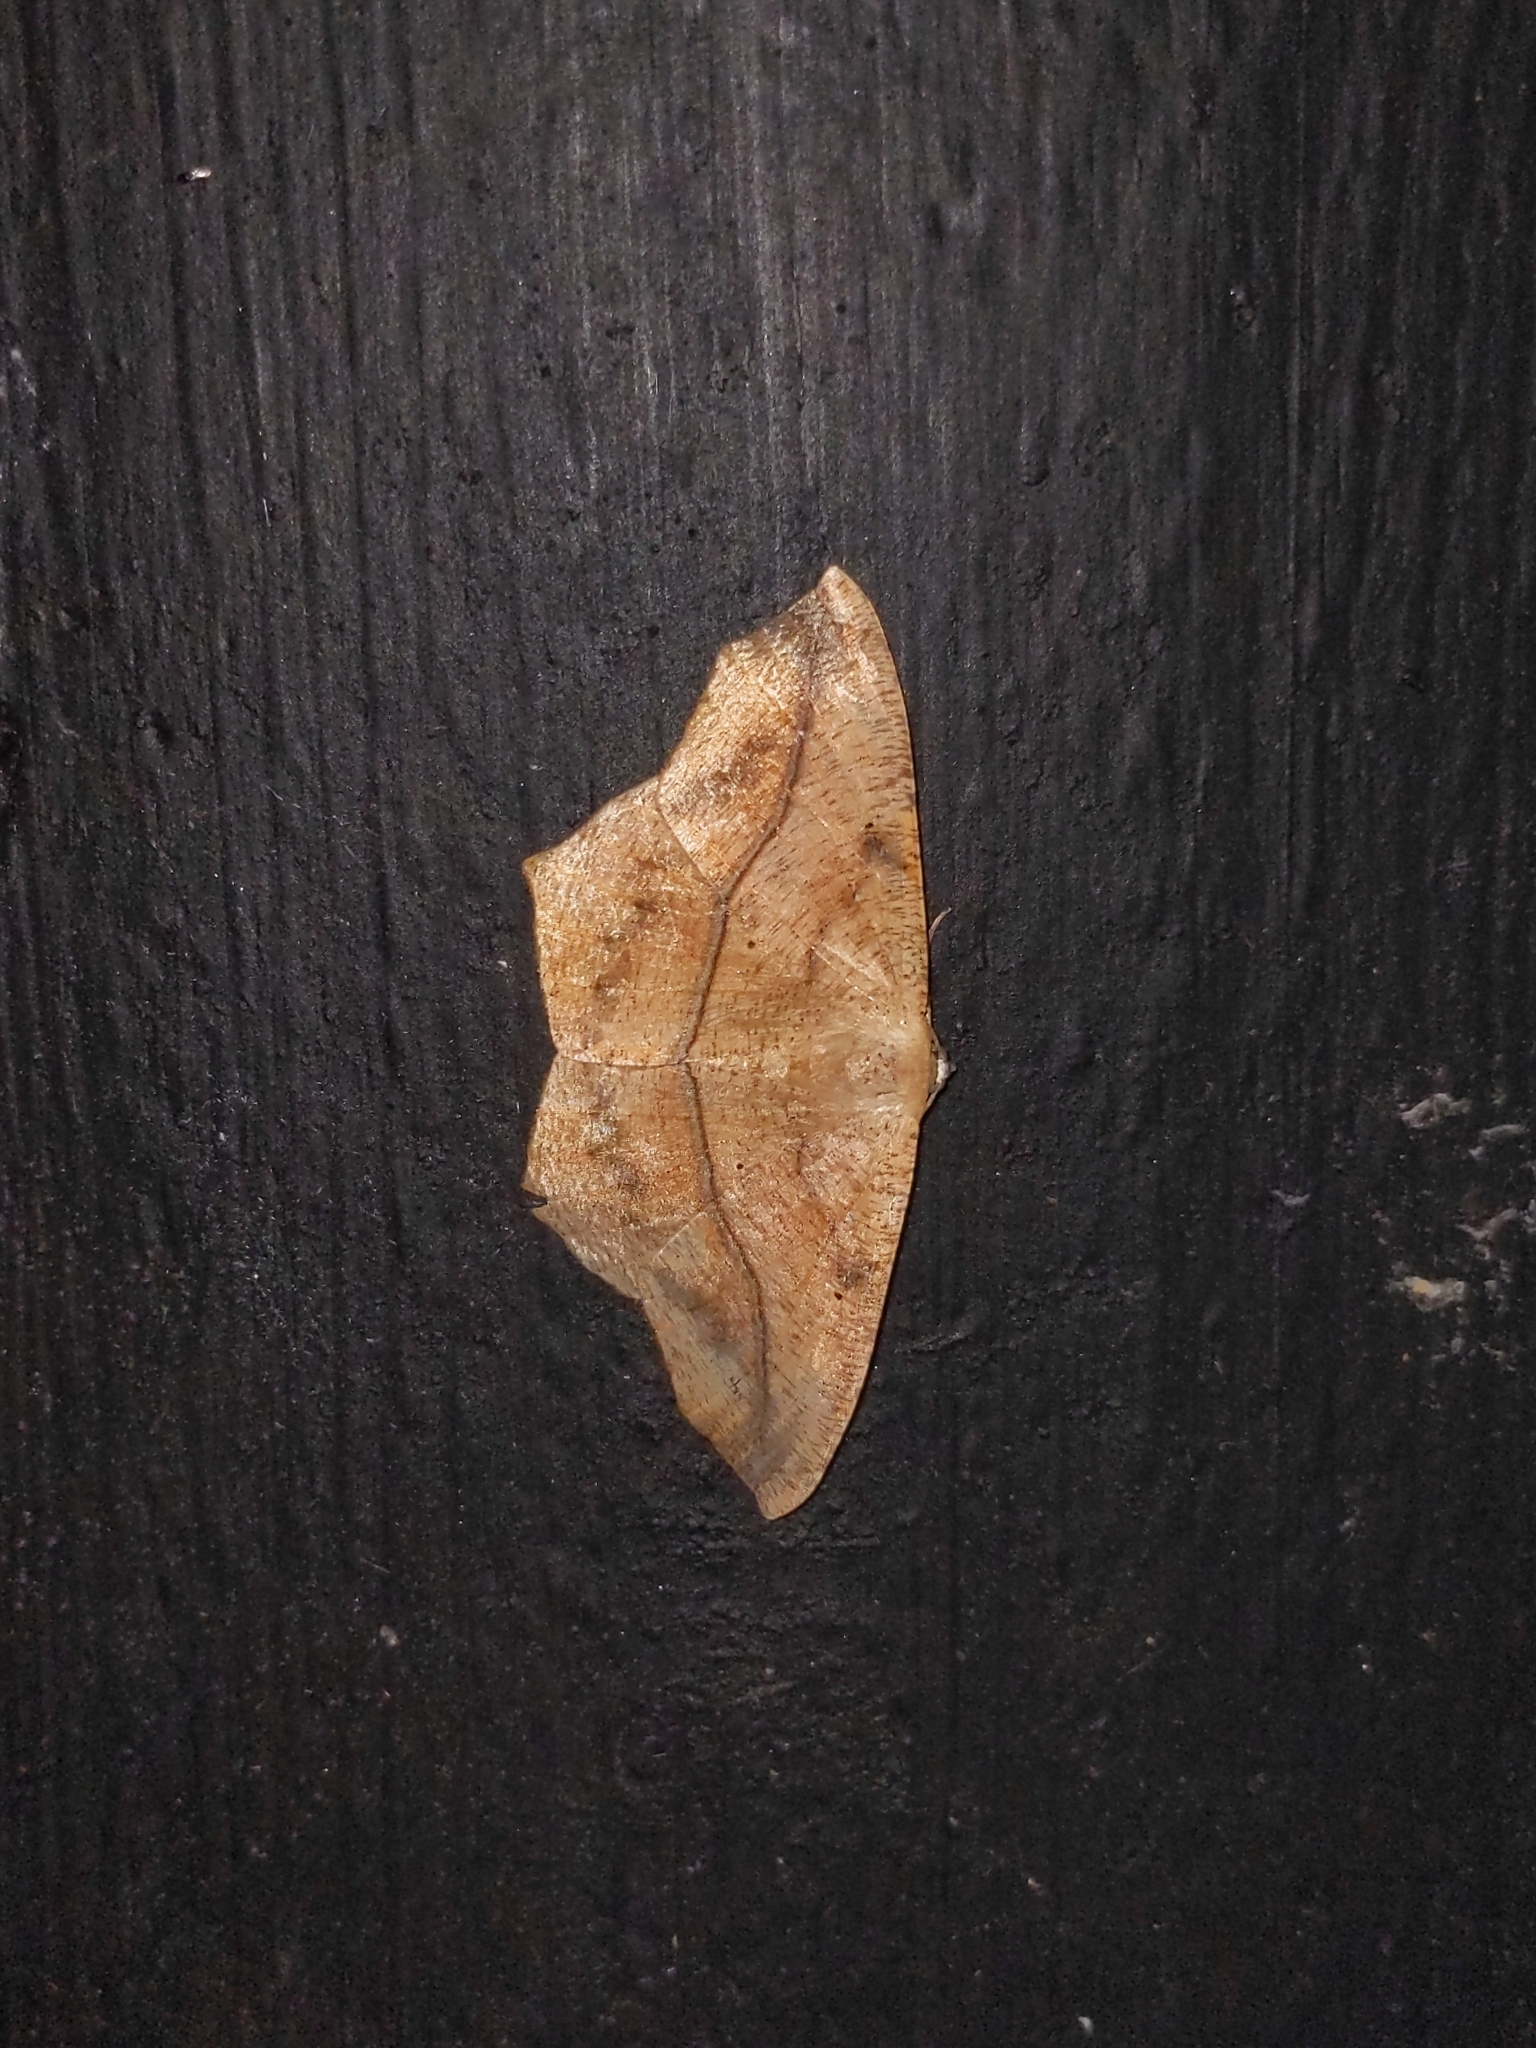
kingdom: Animalia
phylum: Arthropoda
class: Insecta
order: Lepidoptera
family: Geometridae
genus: Prochoerodes
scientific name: Prochoerodes lineola
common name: Large maple spanworm
